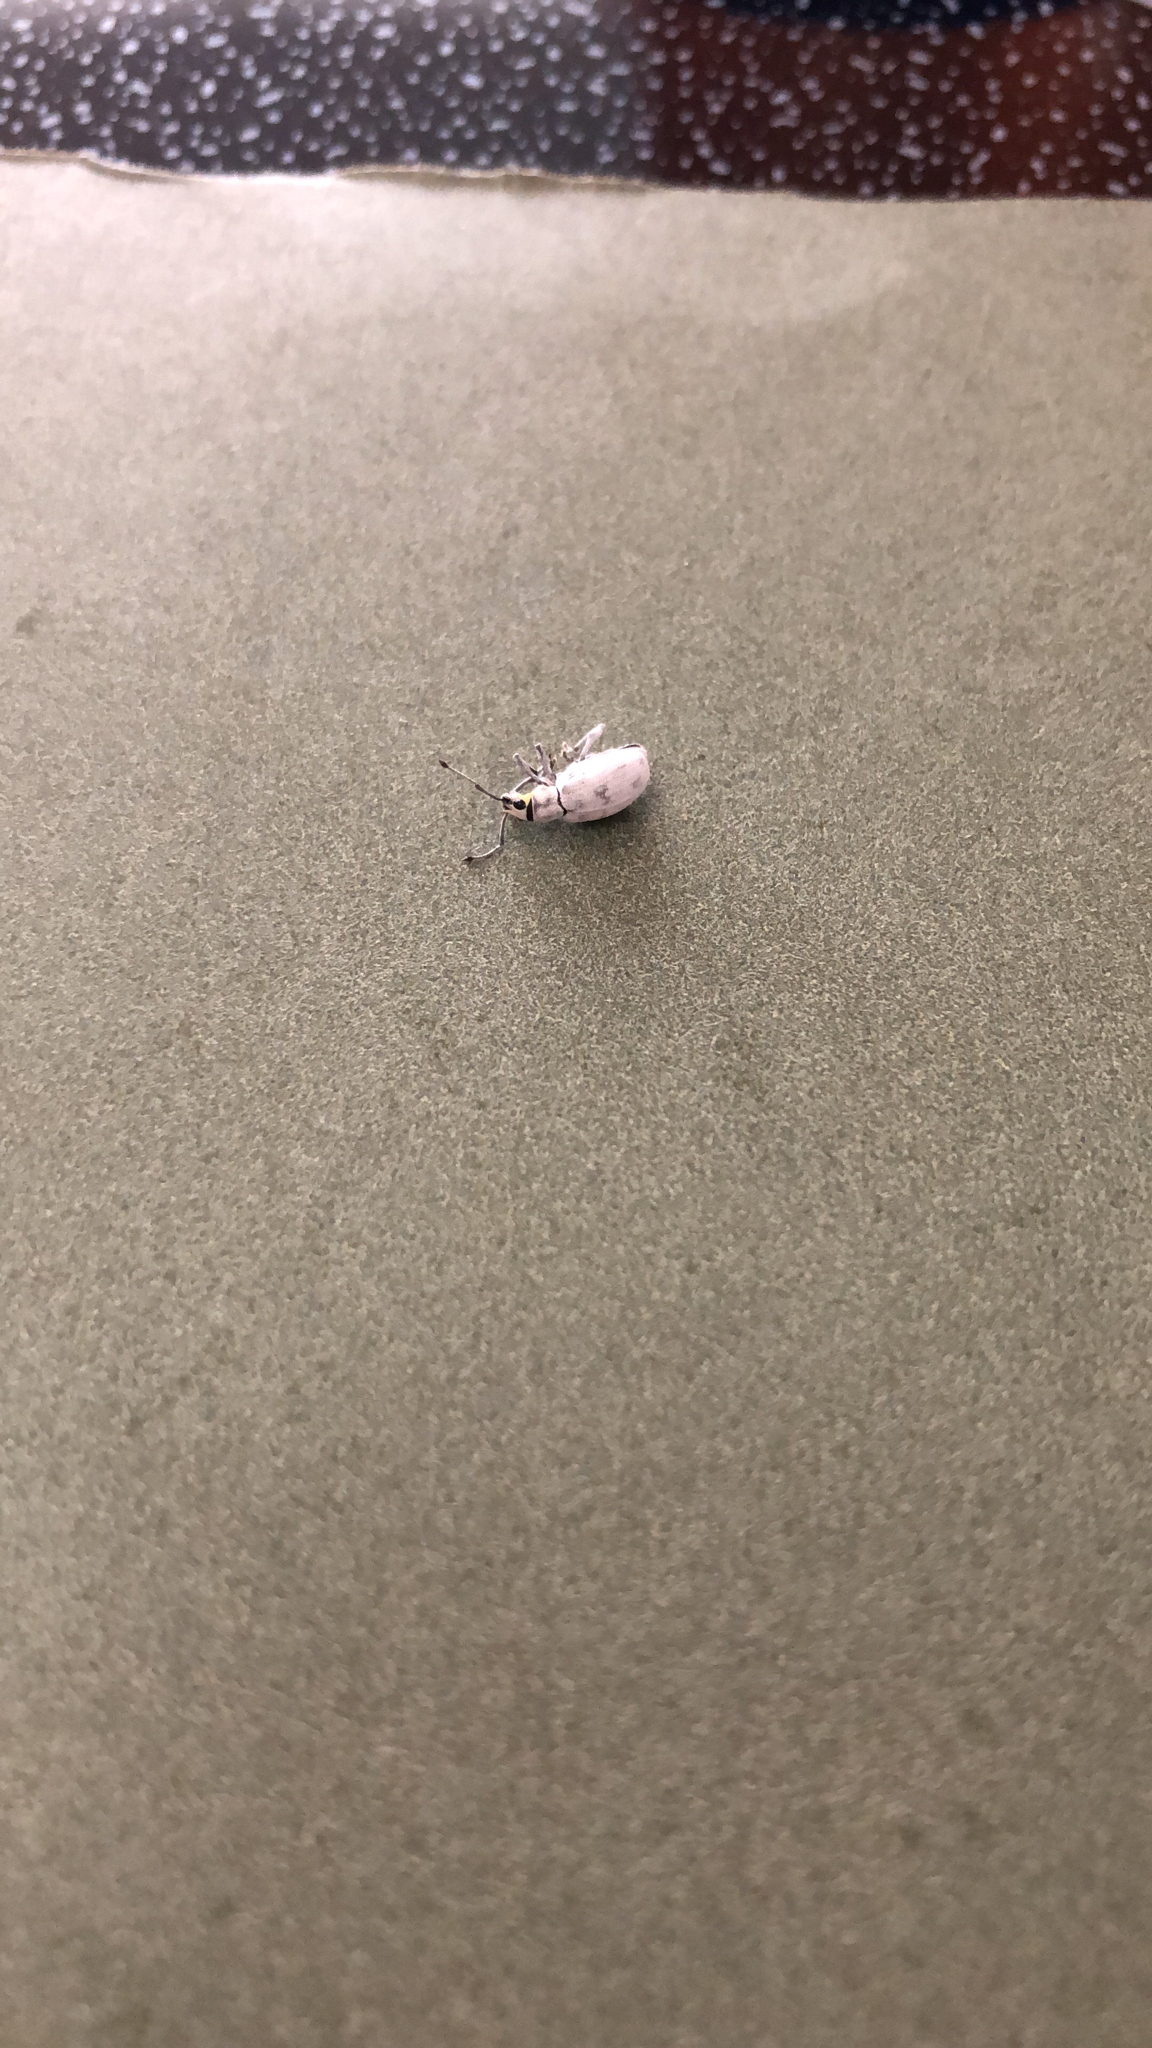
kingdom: Animalia
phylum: Arthropoda
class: Insecta
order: Coleoptera
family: Curculionidae
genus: Myllocerus
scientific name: Myllocerus undecimpustulatus
